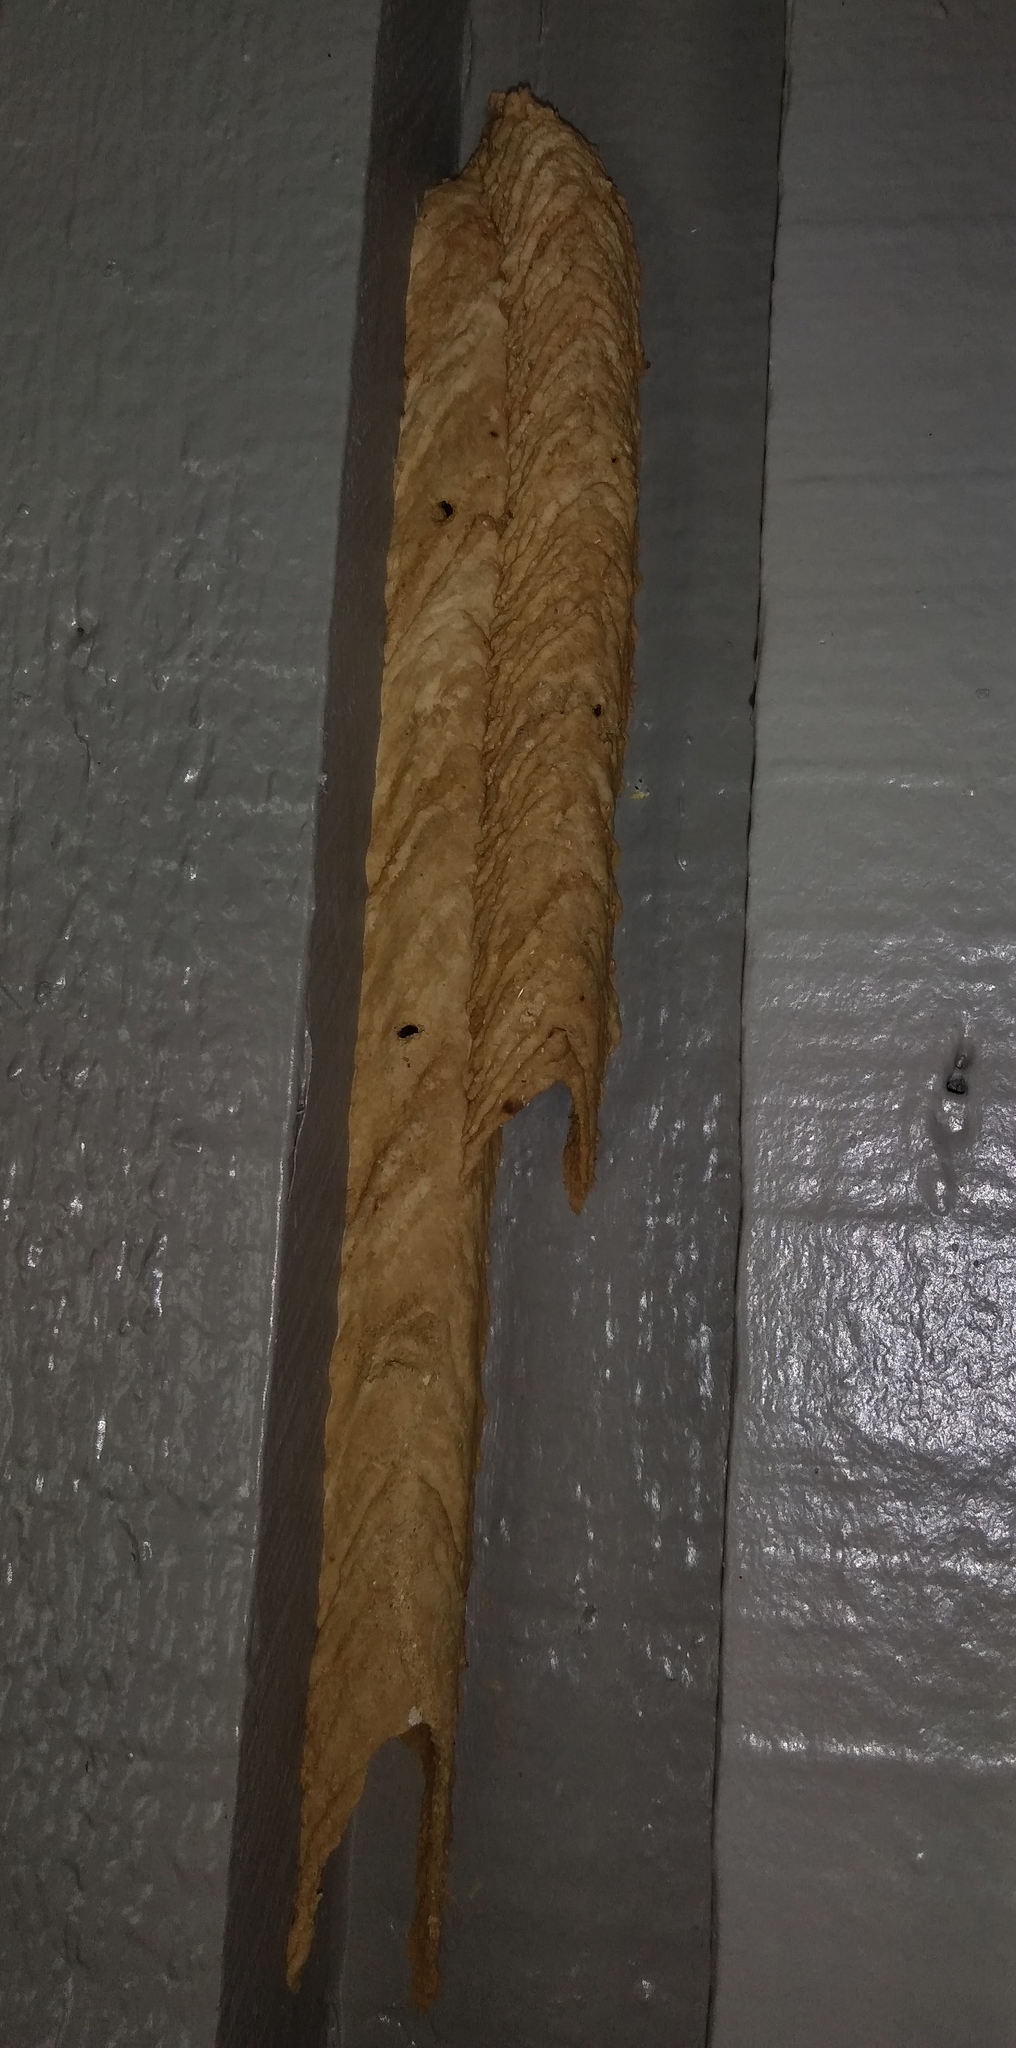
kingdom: Animalia
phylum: Arthropoda
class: Insecta
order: Hymenoptera
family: Crabronidae
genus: Trypoxylon
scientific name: Trypoxylon politum
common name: Organ-pipe mud-dauber wasp
